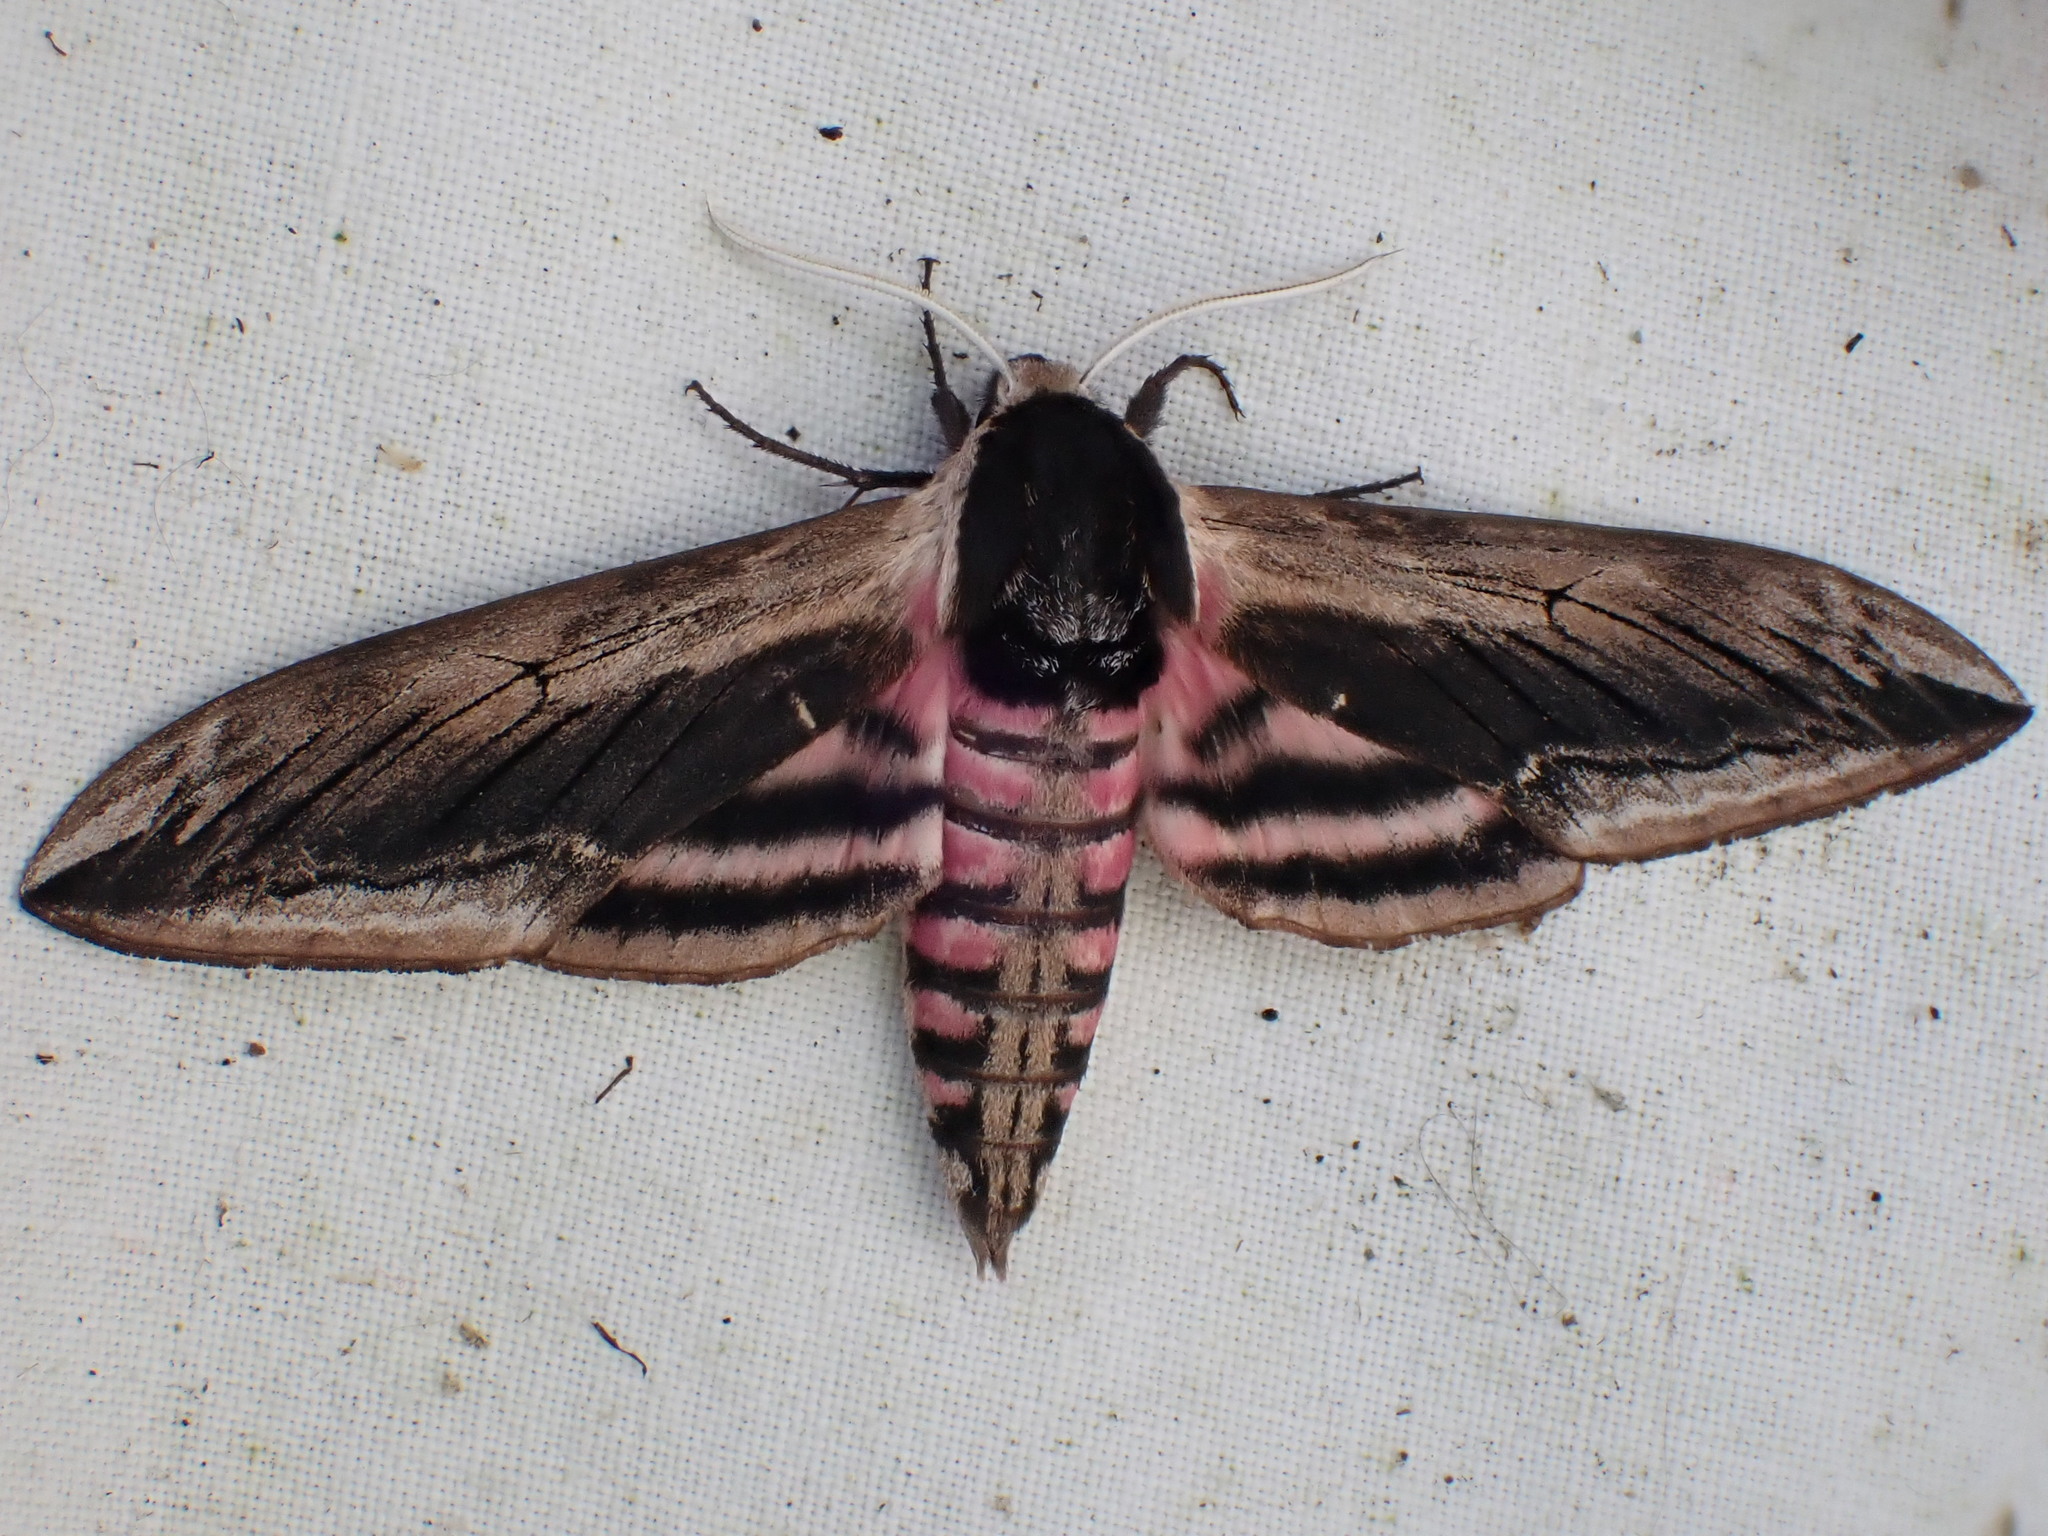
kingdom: Animalia
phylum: Arthropoda
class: Insecta
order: Lepidoptera
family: Sphingidae
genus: Sphinx
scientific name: Sphinx ligustri
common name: Privet hawk-moth
